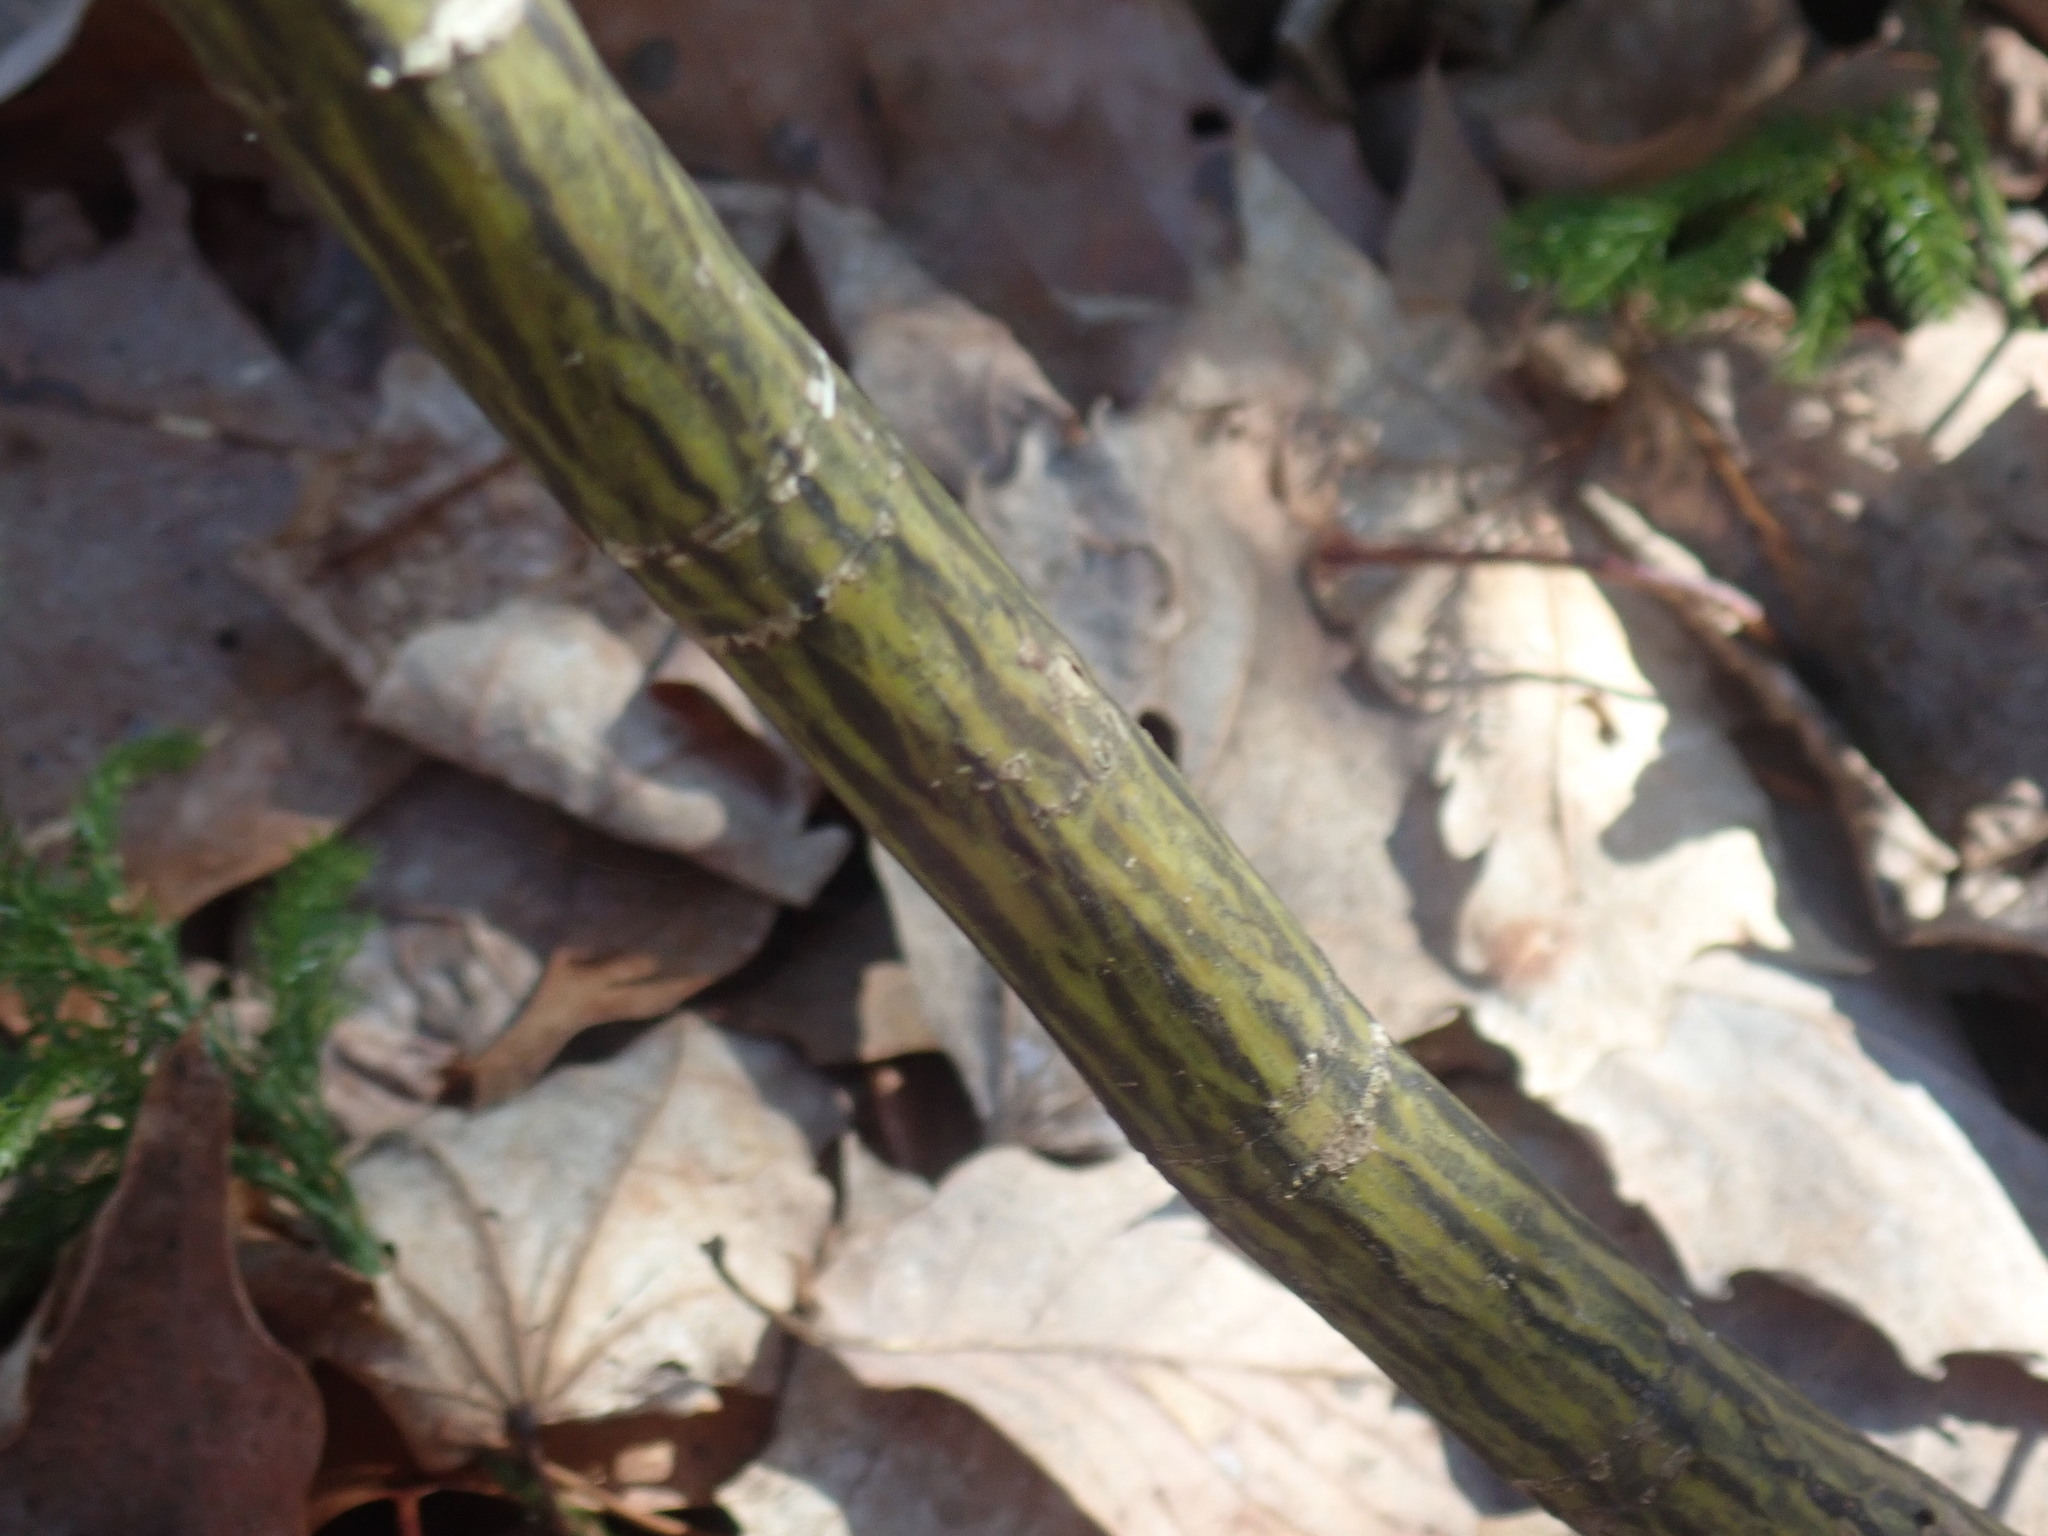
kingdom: Plantae
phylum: Tracheophyta
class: Magnoliopsida
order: Sapindales
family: Sapindaceae
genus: Acer
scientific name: Acer pensylvanicum
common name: Moosewood
